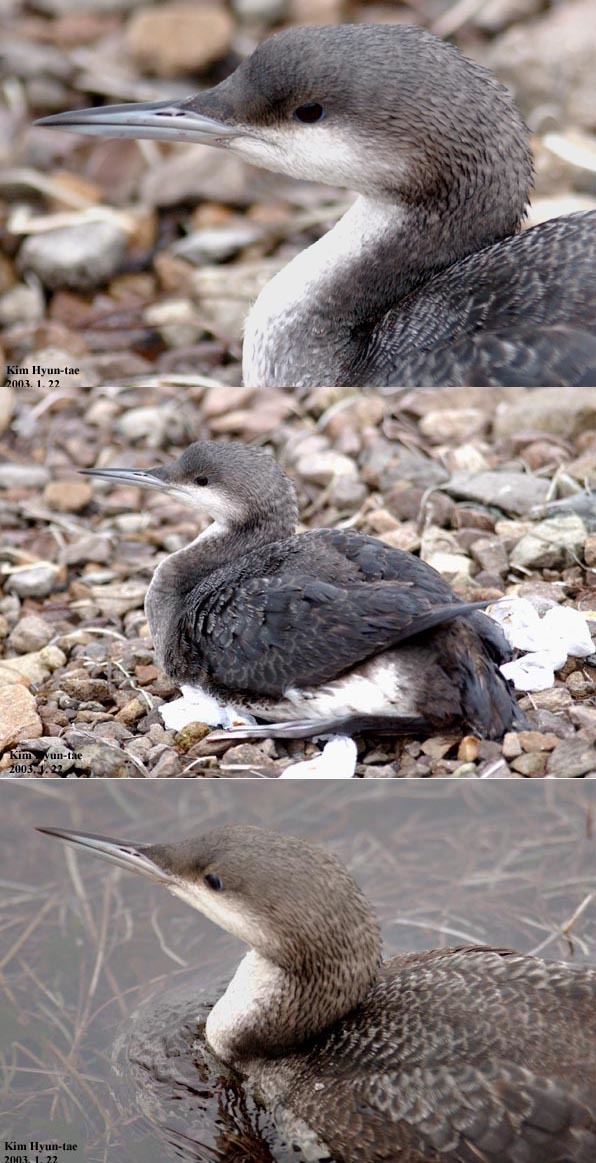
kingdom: Animalia
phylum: Chordata
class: Aves
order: Gaviiformes
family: Gaviidae
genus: Gavia
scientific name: Gavia arctica
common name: Black-throated loon
